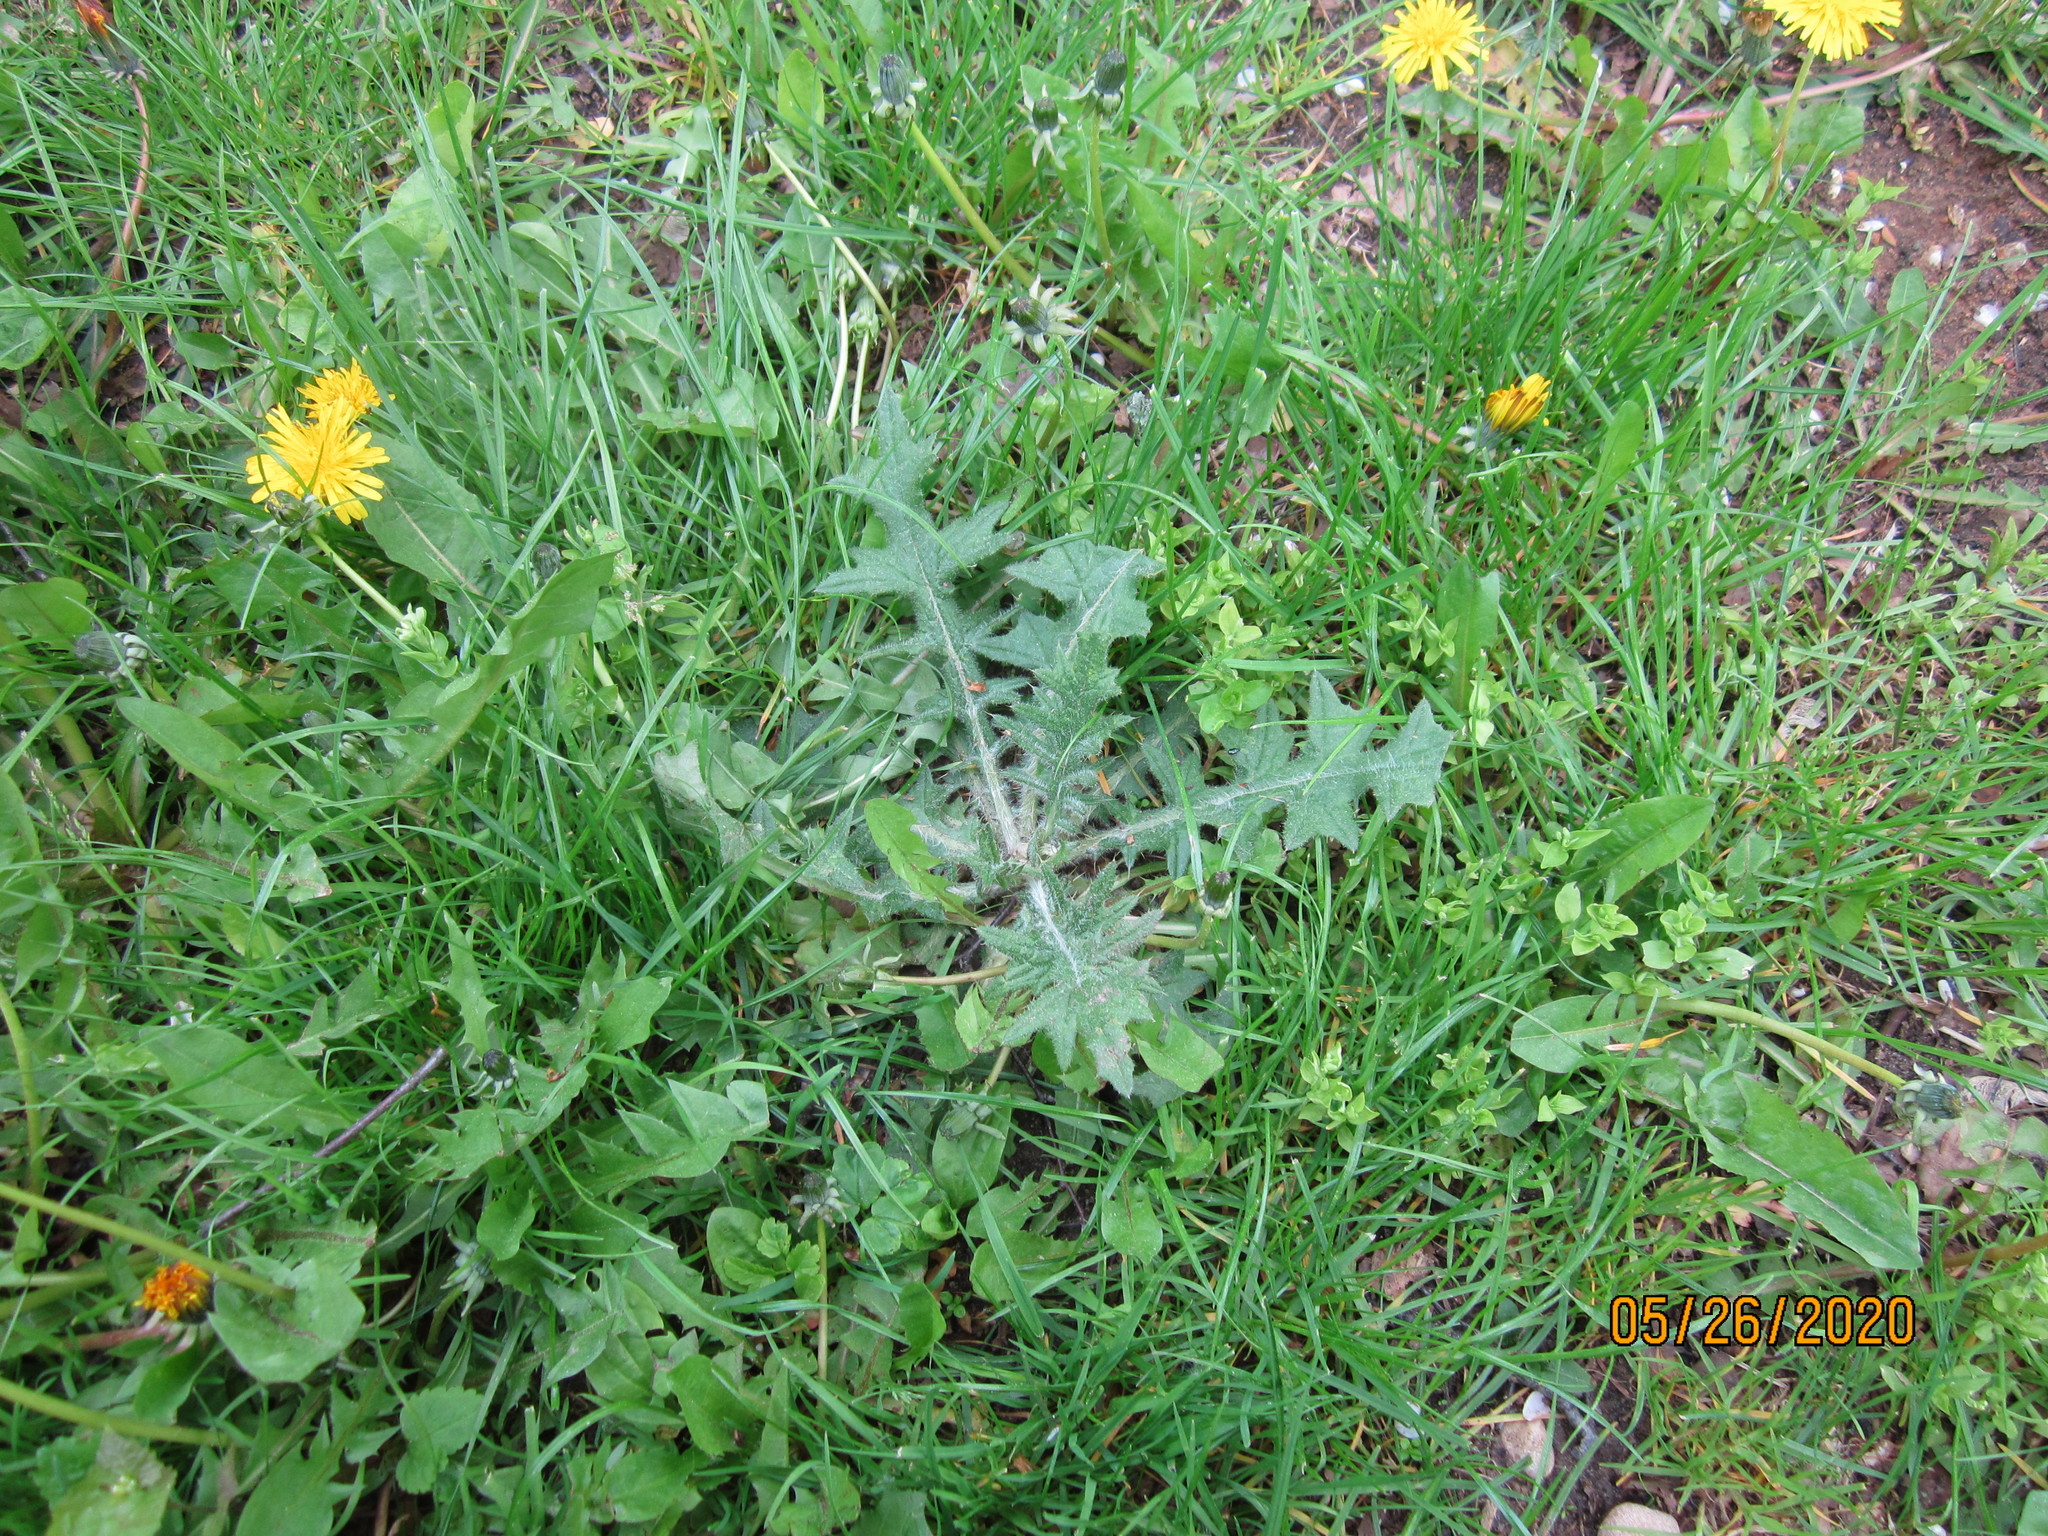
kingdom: Plantae
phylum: Tracheophyta
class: Magnoliopsida
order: Asterales
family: Asteraceae
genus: Cirsium
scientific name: Cirsium vulgare
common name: Bull thistle
